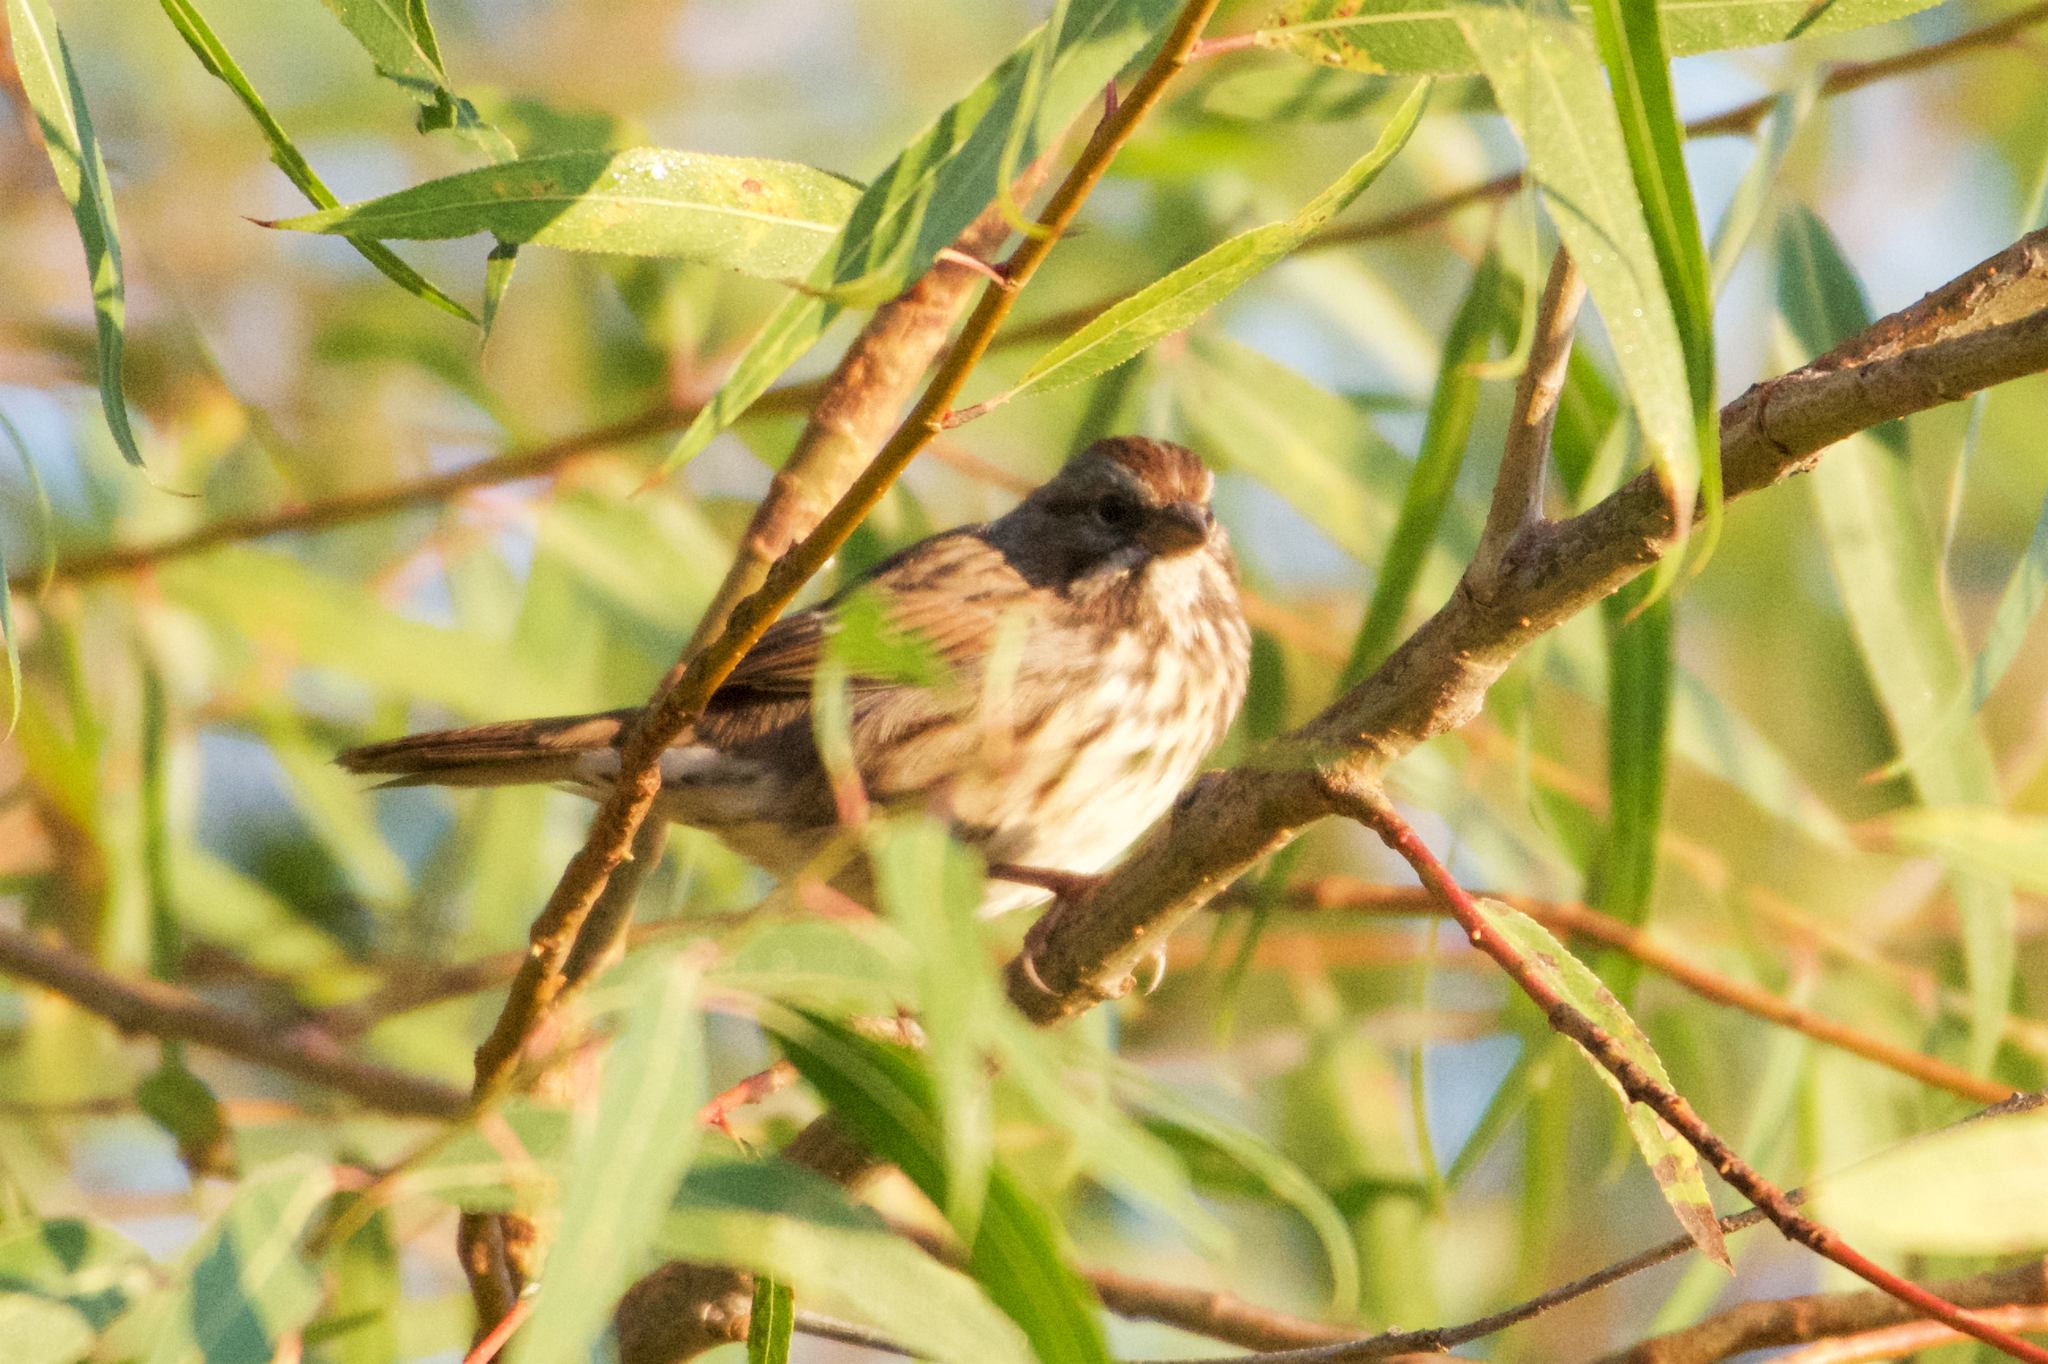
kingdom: Animalia
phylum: Chordata
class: Aves
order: Passeriformes
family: Passerellidae
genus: Melospiza
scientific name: Melospiza melodia
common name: Song sparrow
